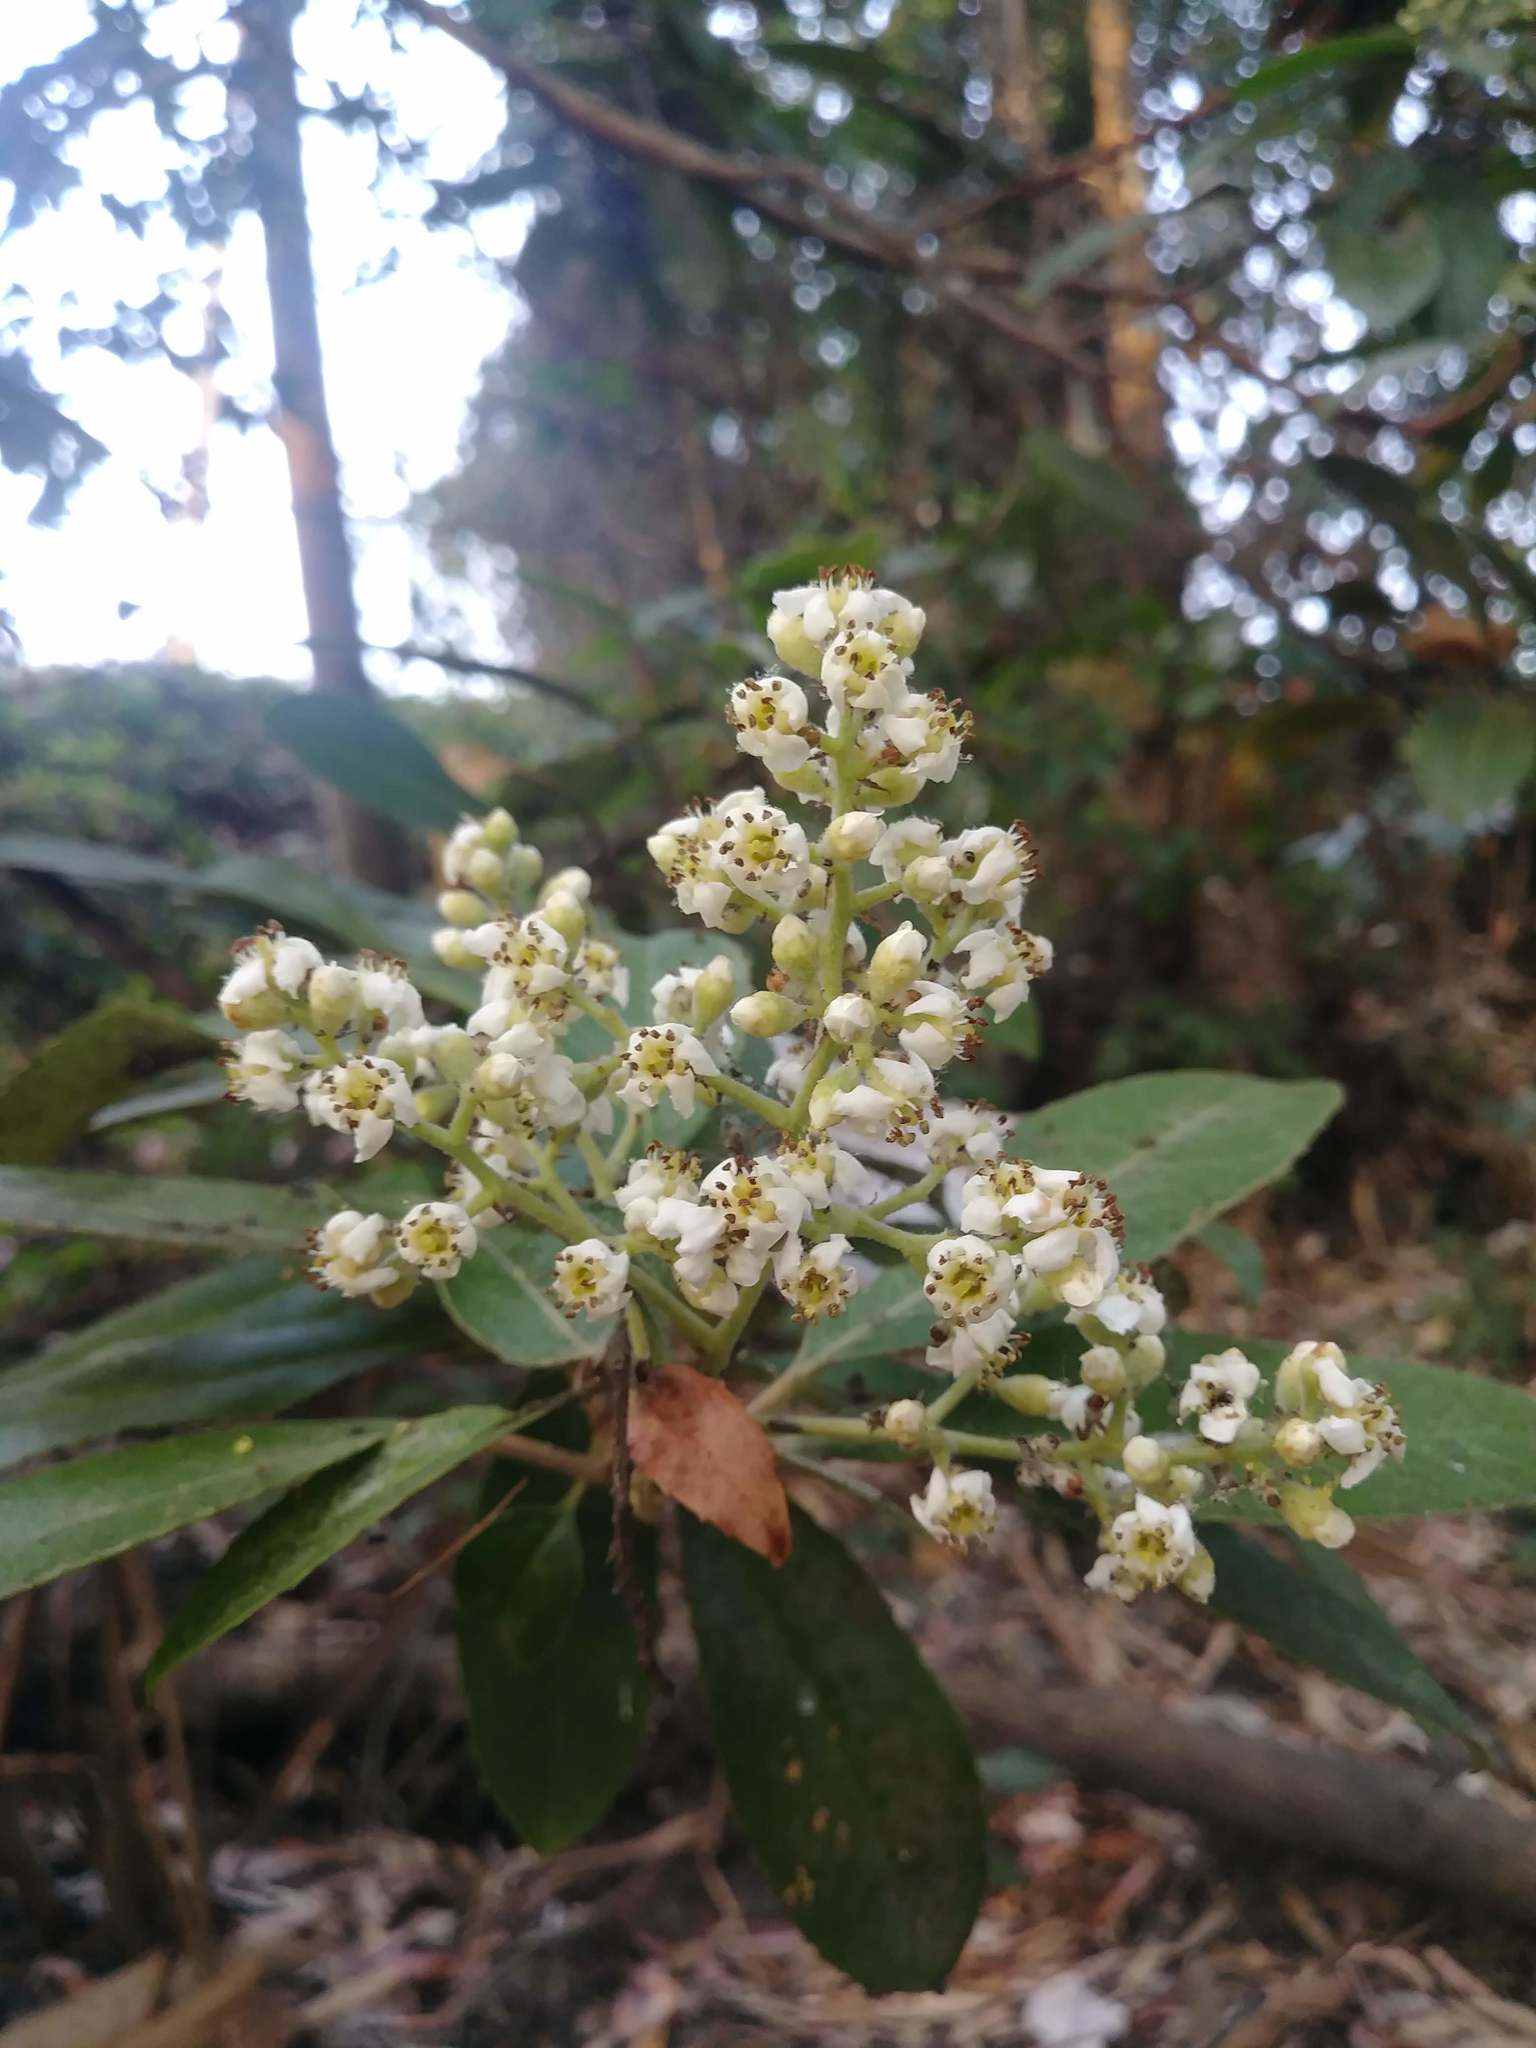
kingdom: Plantae
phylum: Tracheophyta
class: Magnoliopsida
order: Rosales
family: Rosaceae
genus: Heteromeles
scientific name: Heteromeles arbutifolia
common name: California-holly
